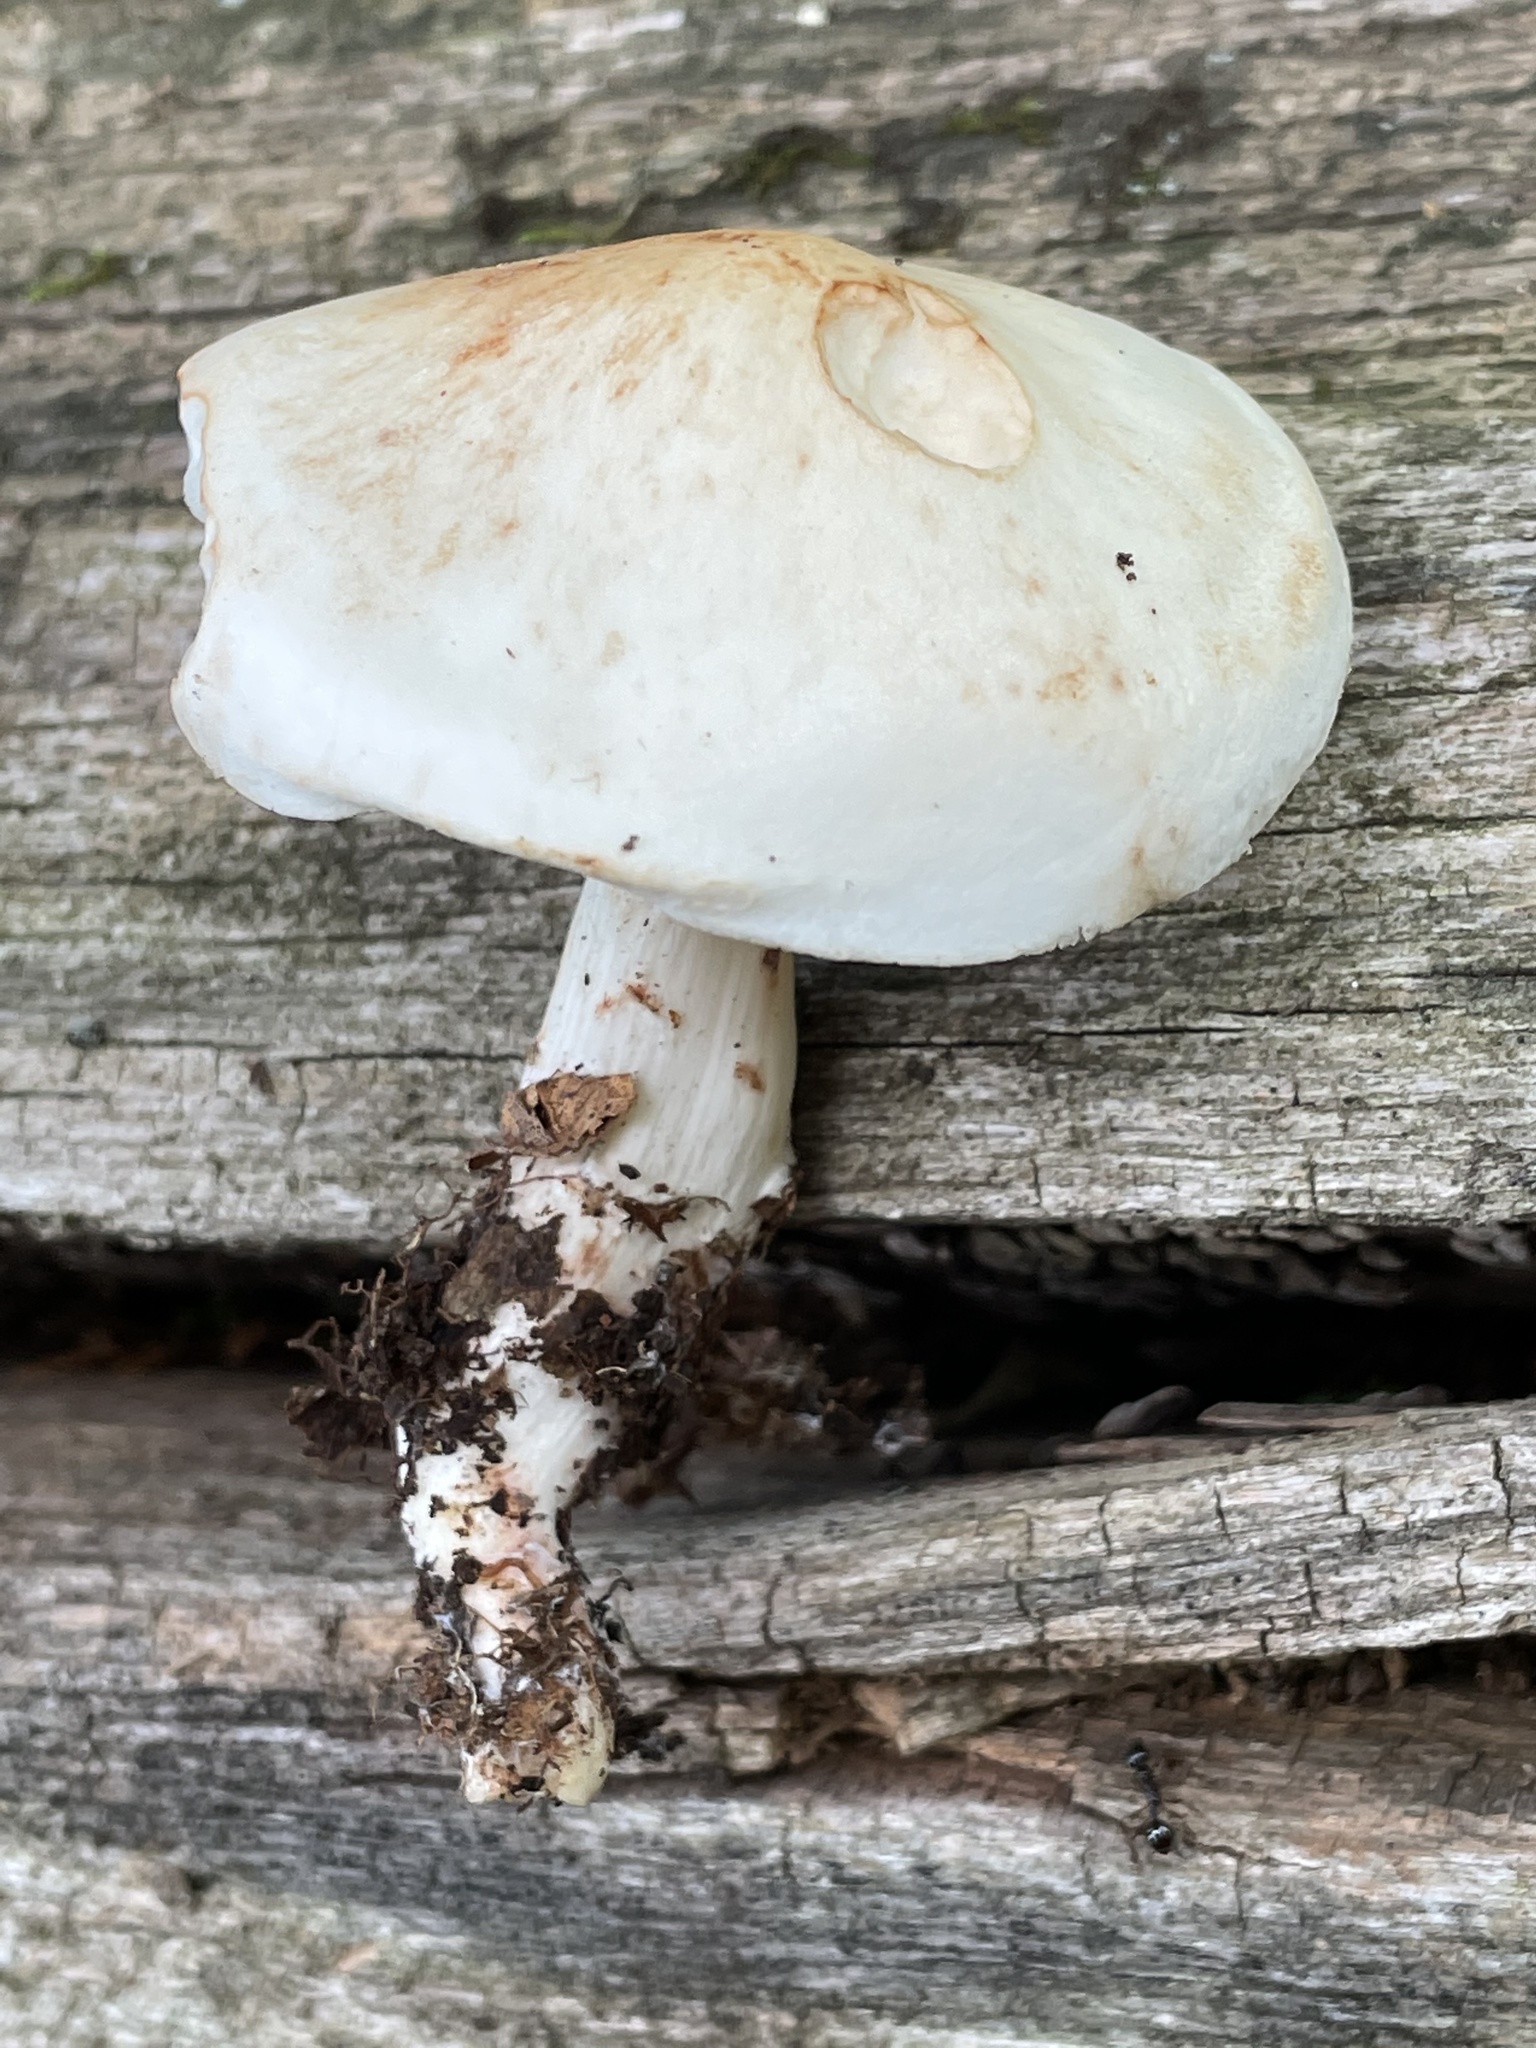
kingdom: Fungi
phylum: Basidiomycota
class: Agaricomycetes
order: Agaricales
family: Omphalotaceae
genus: Rhodocollybia
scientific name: Rhodocollybia maculata
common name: Spotted tough-shank
